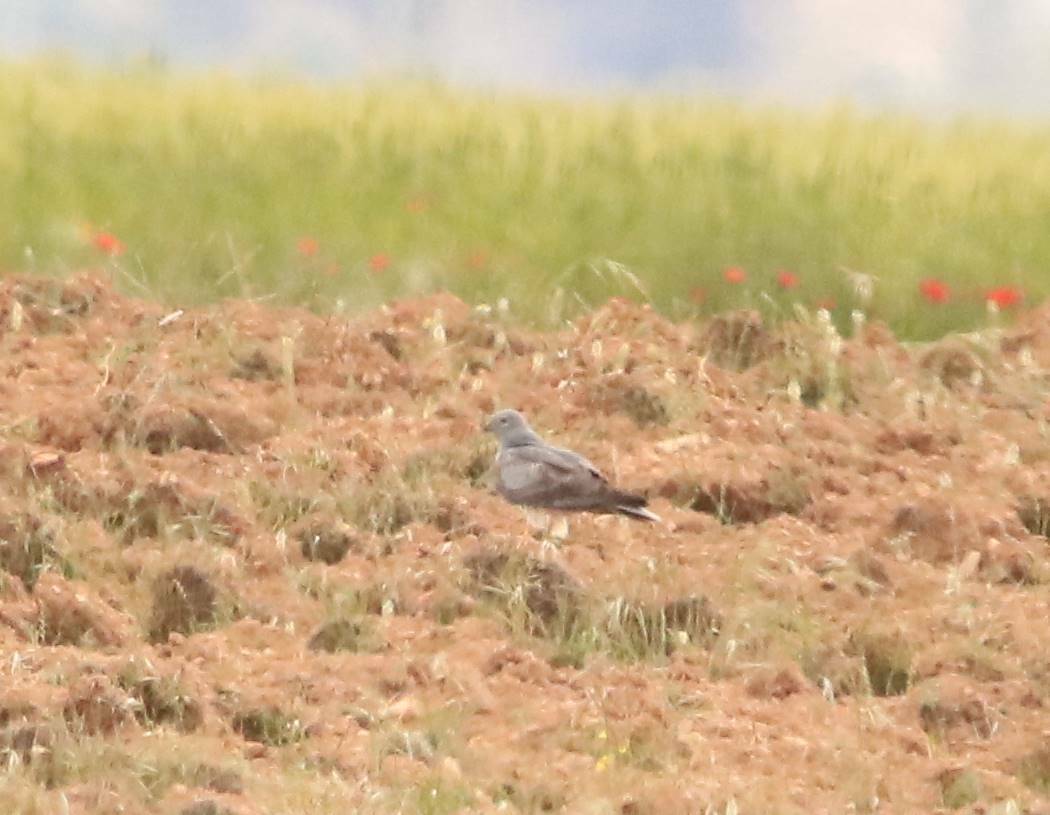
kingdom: Animalia
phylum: Chordata
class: Aves
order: Accipitriformes
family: Accipitridae
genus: Circus
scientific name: Circus pygargus
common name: Montagu's harrier
